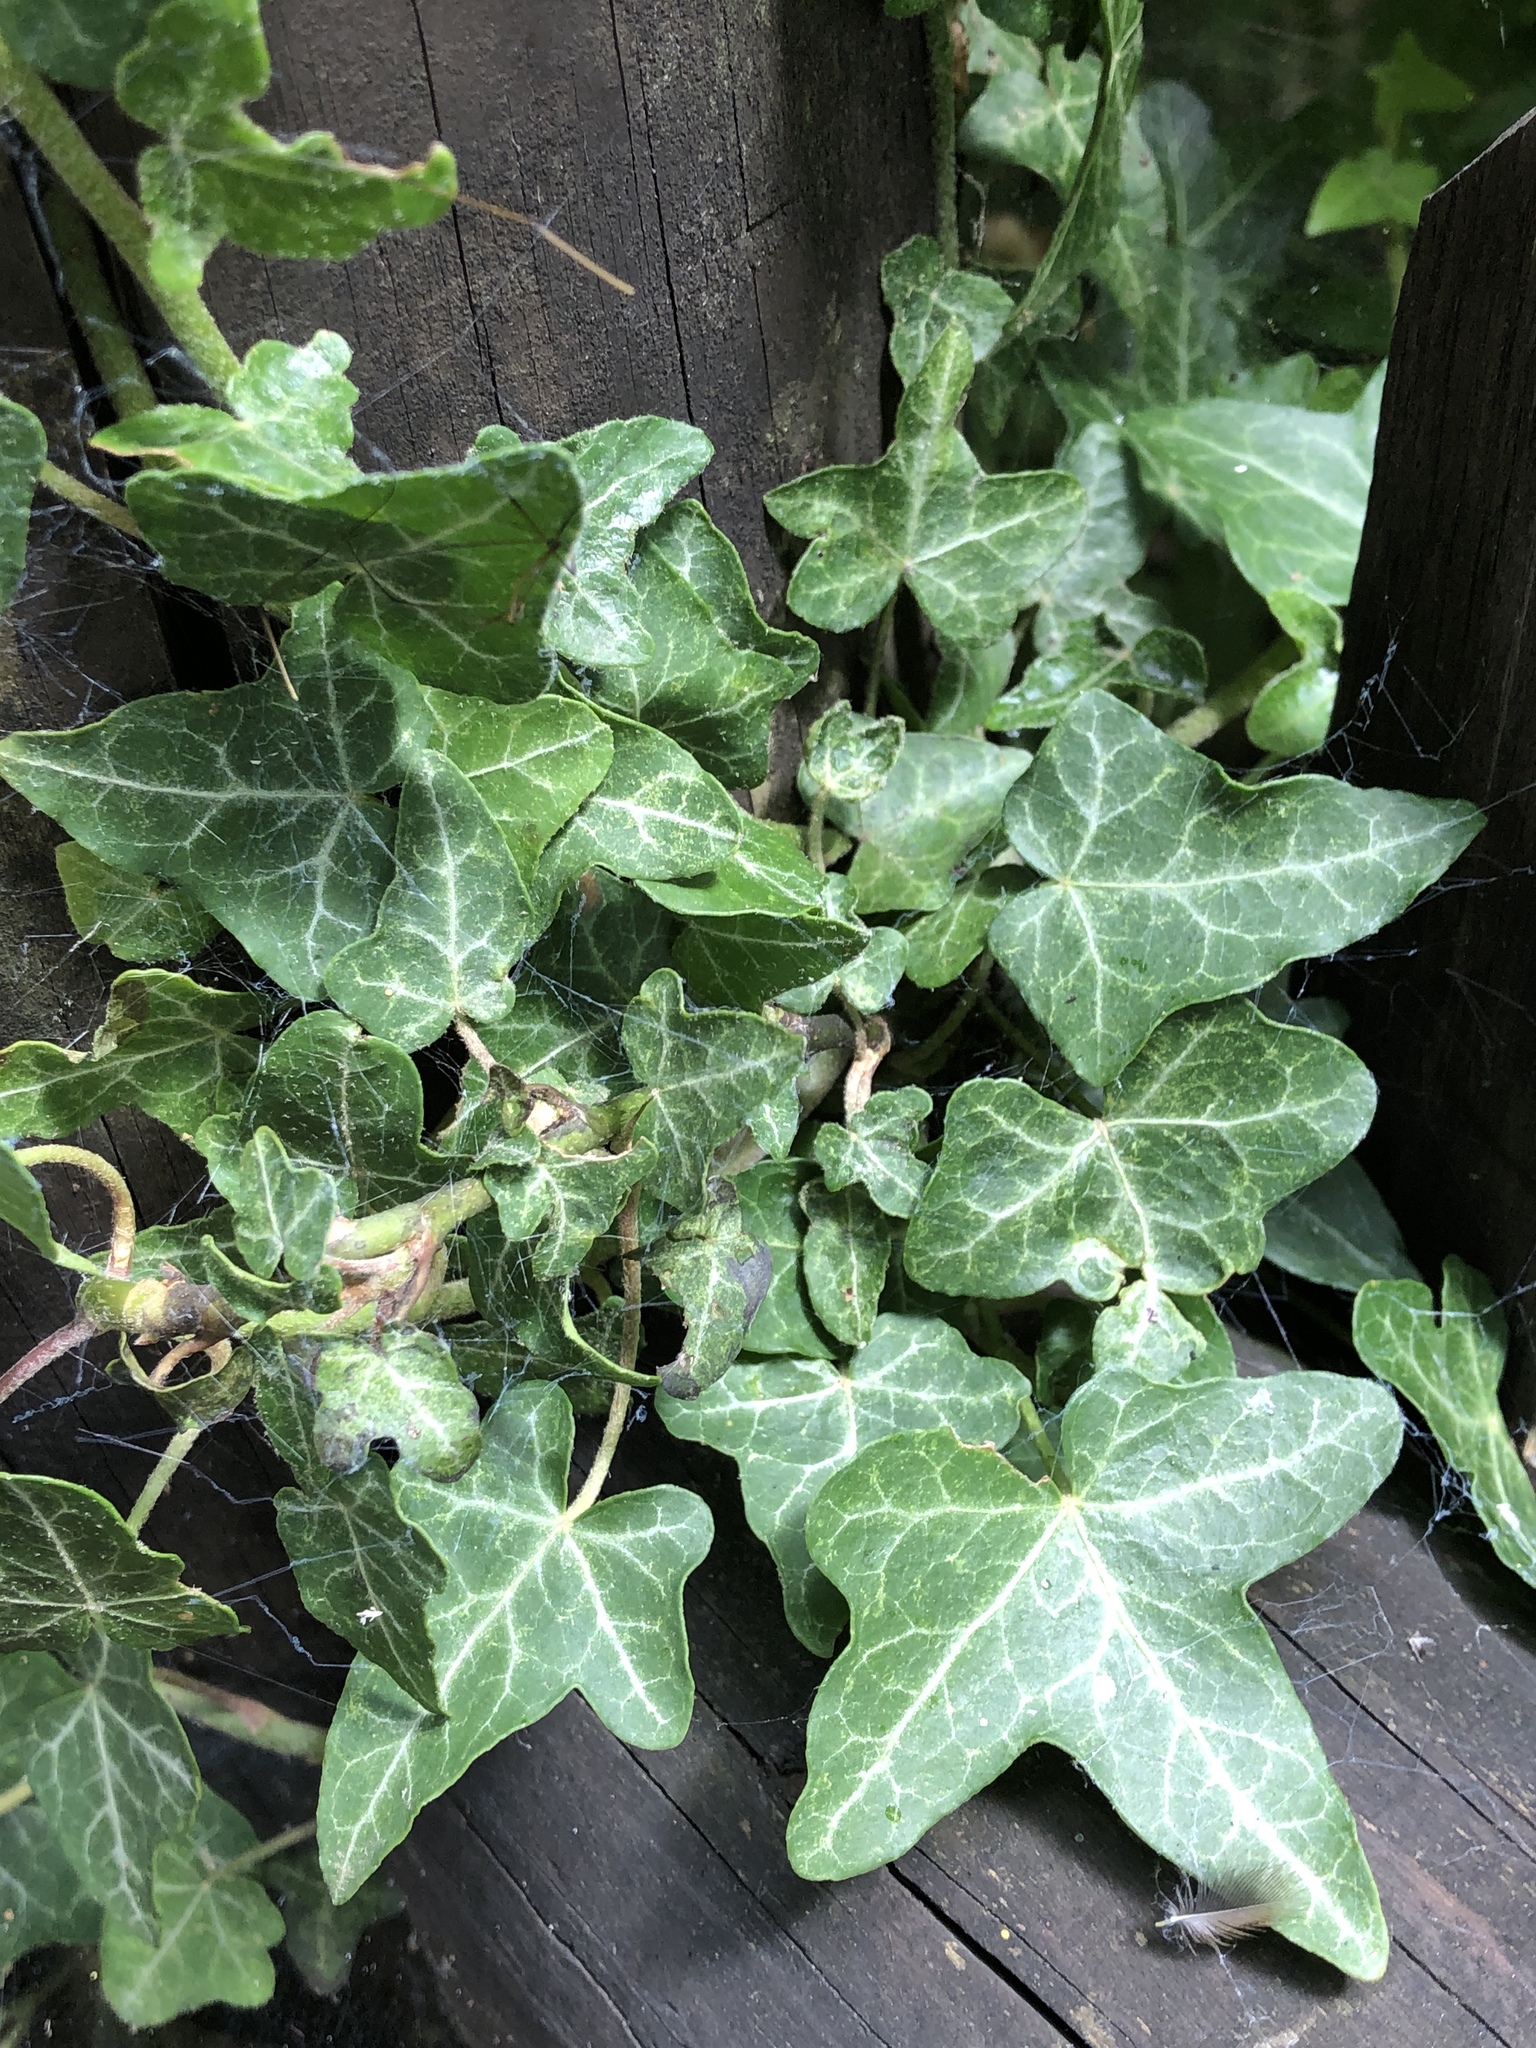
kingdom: Plantae
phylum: Tracheophyta
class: Magnoliopsida
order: Apiales
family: Araliaceae
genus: Hedera
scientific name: Hedera helix
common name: Ivy
